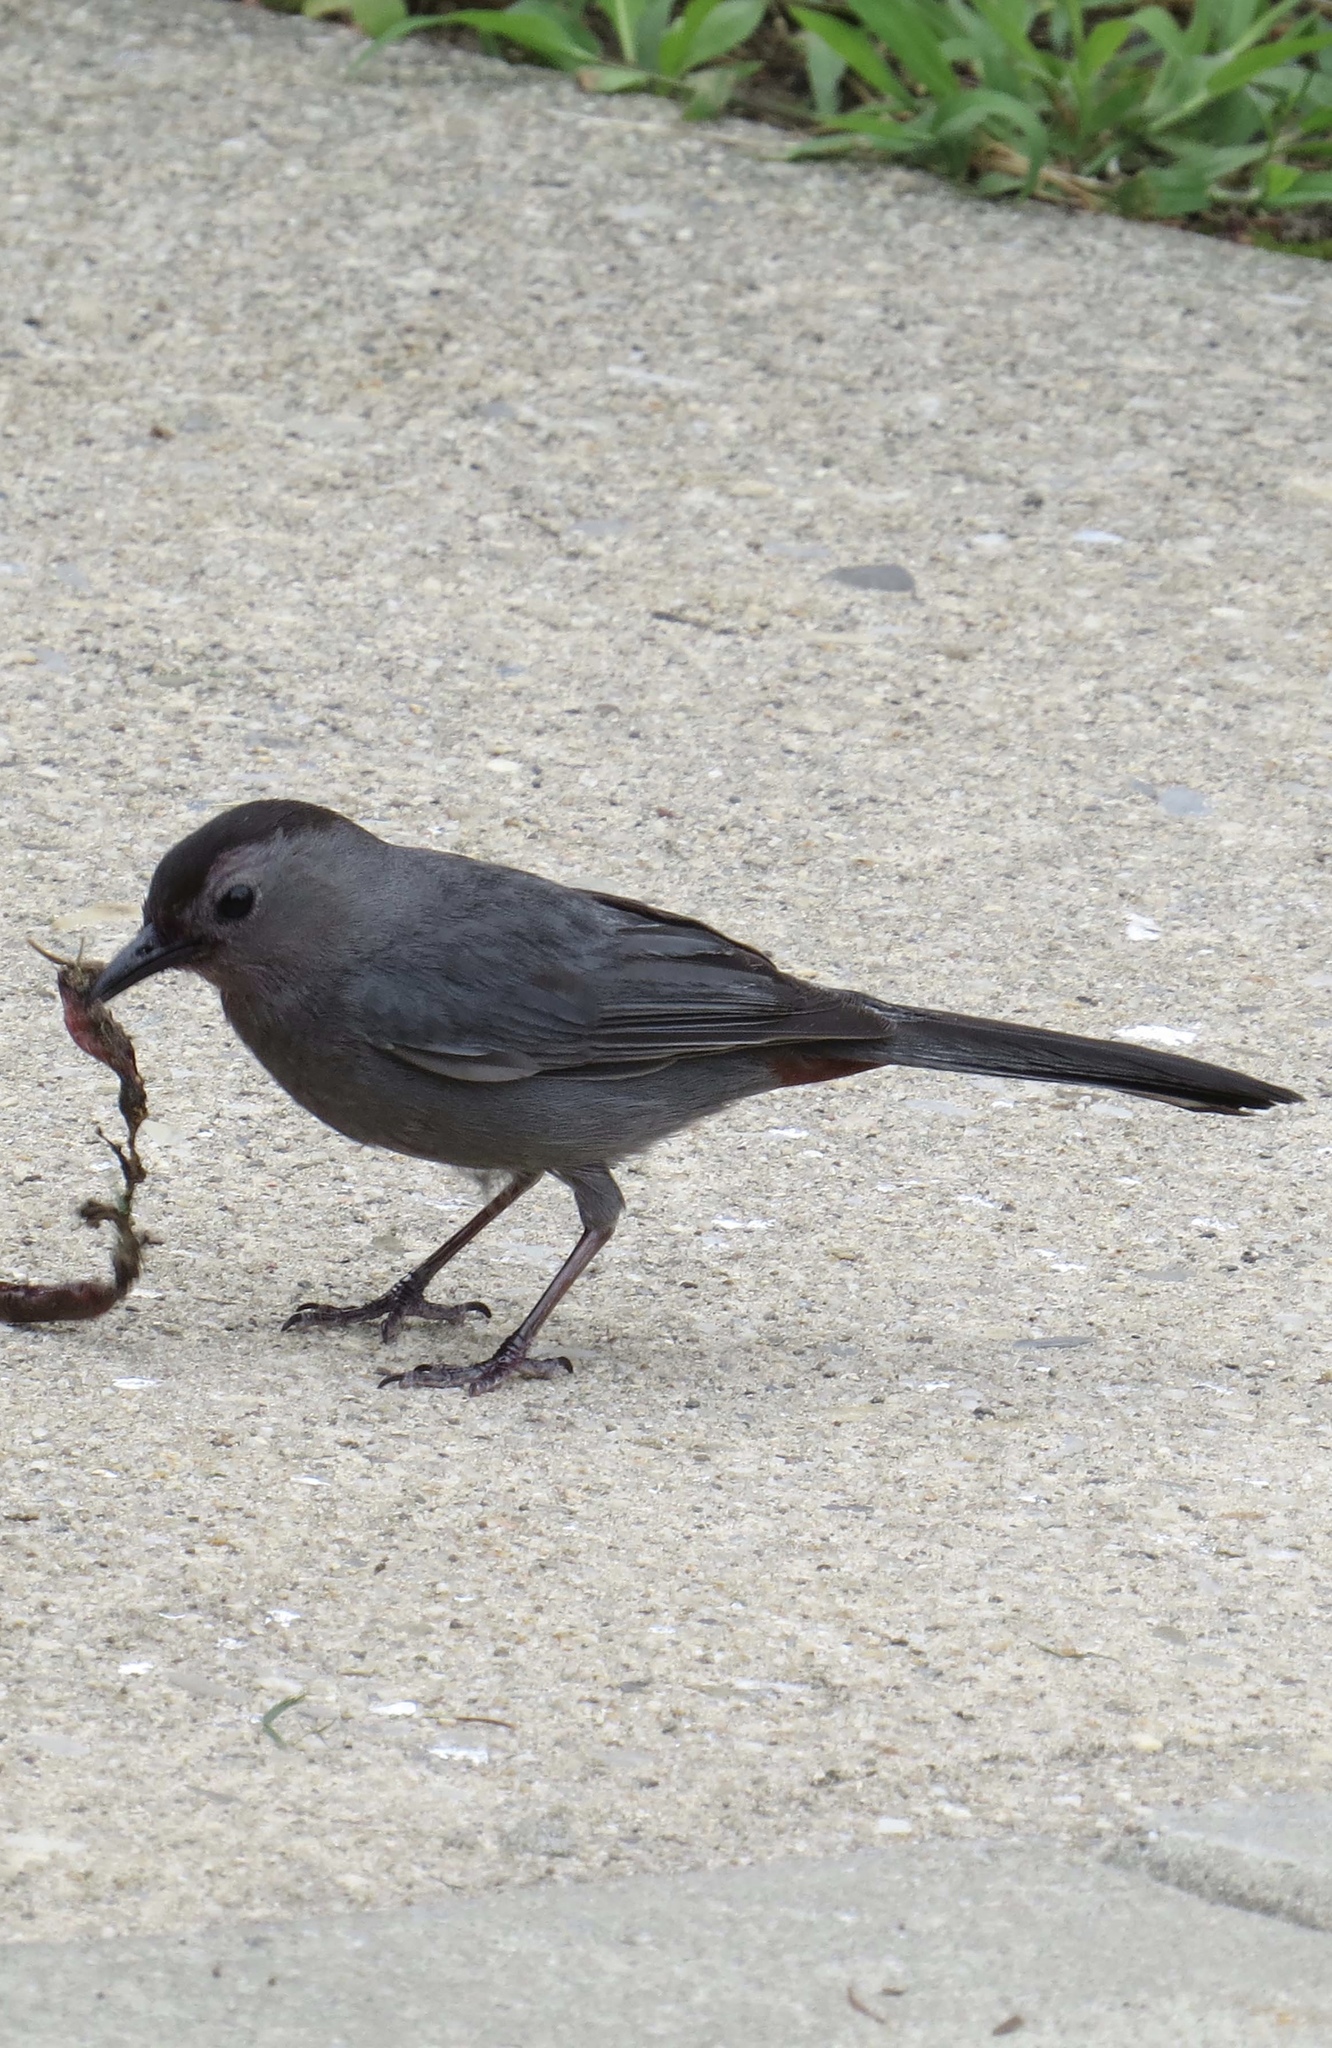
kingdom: Animalia
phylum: Chordata
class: Aves
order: Passeriformes
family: Mimidae
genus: Dumetella
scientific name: Dumetella carolinensis
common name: Gray catbird
